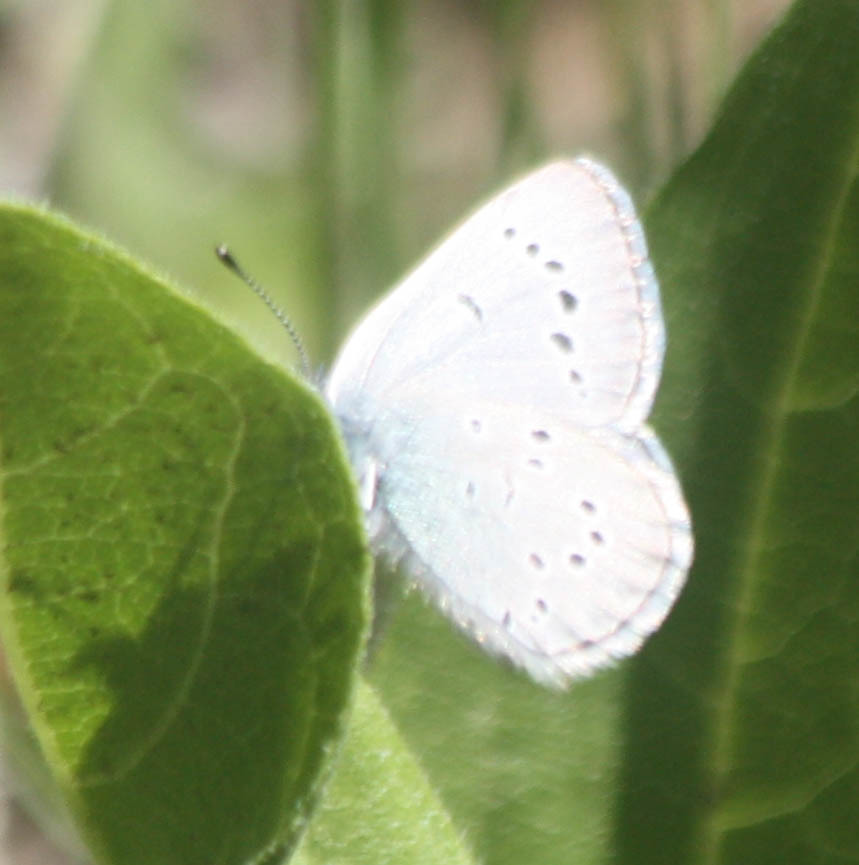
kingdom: Animalia
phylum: Arthropoda
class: Insecta
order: Lepidoptera
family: Lycaenidae
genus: Glaucopsyche
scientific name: Glaucopsyche lygdamus
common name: Silvery blue
